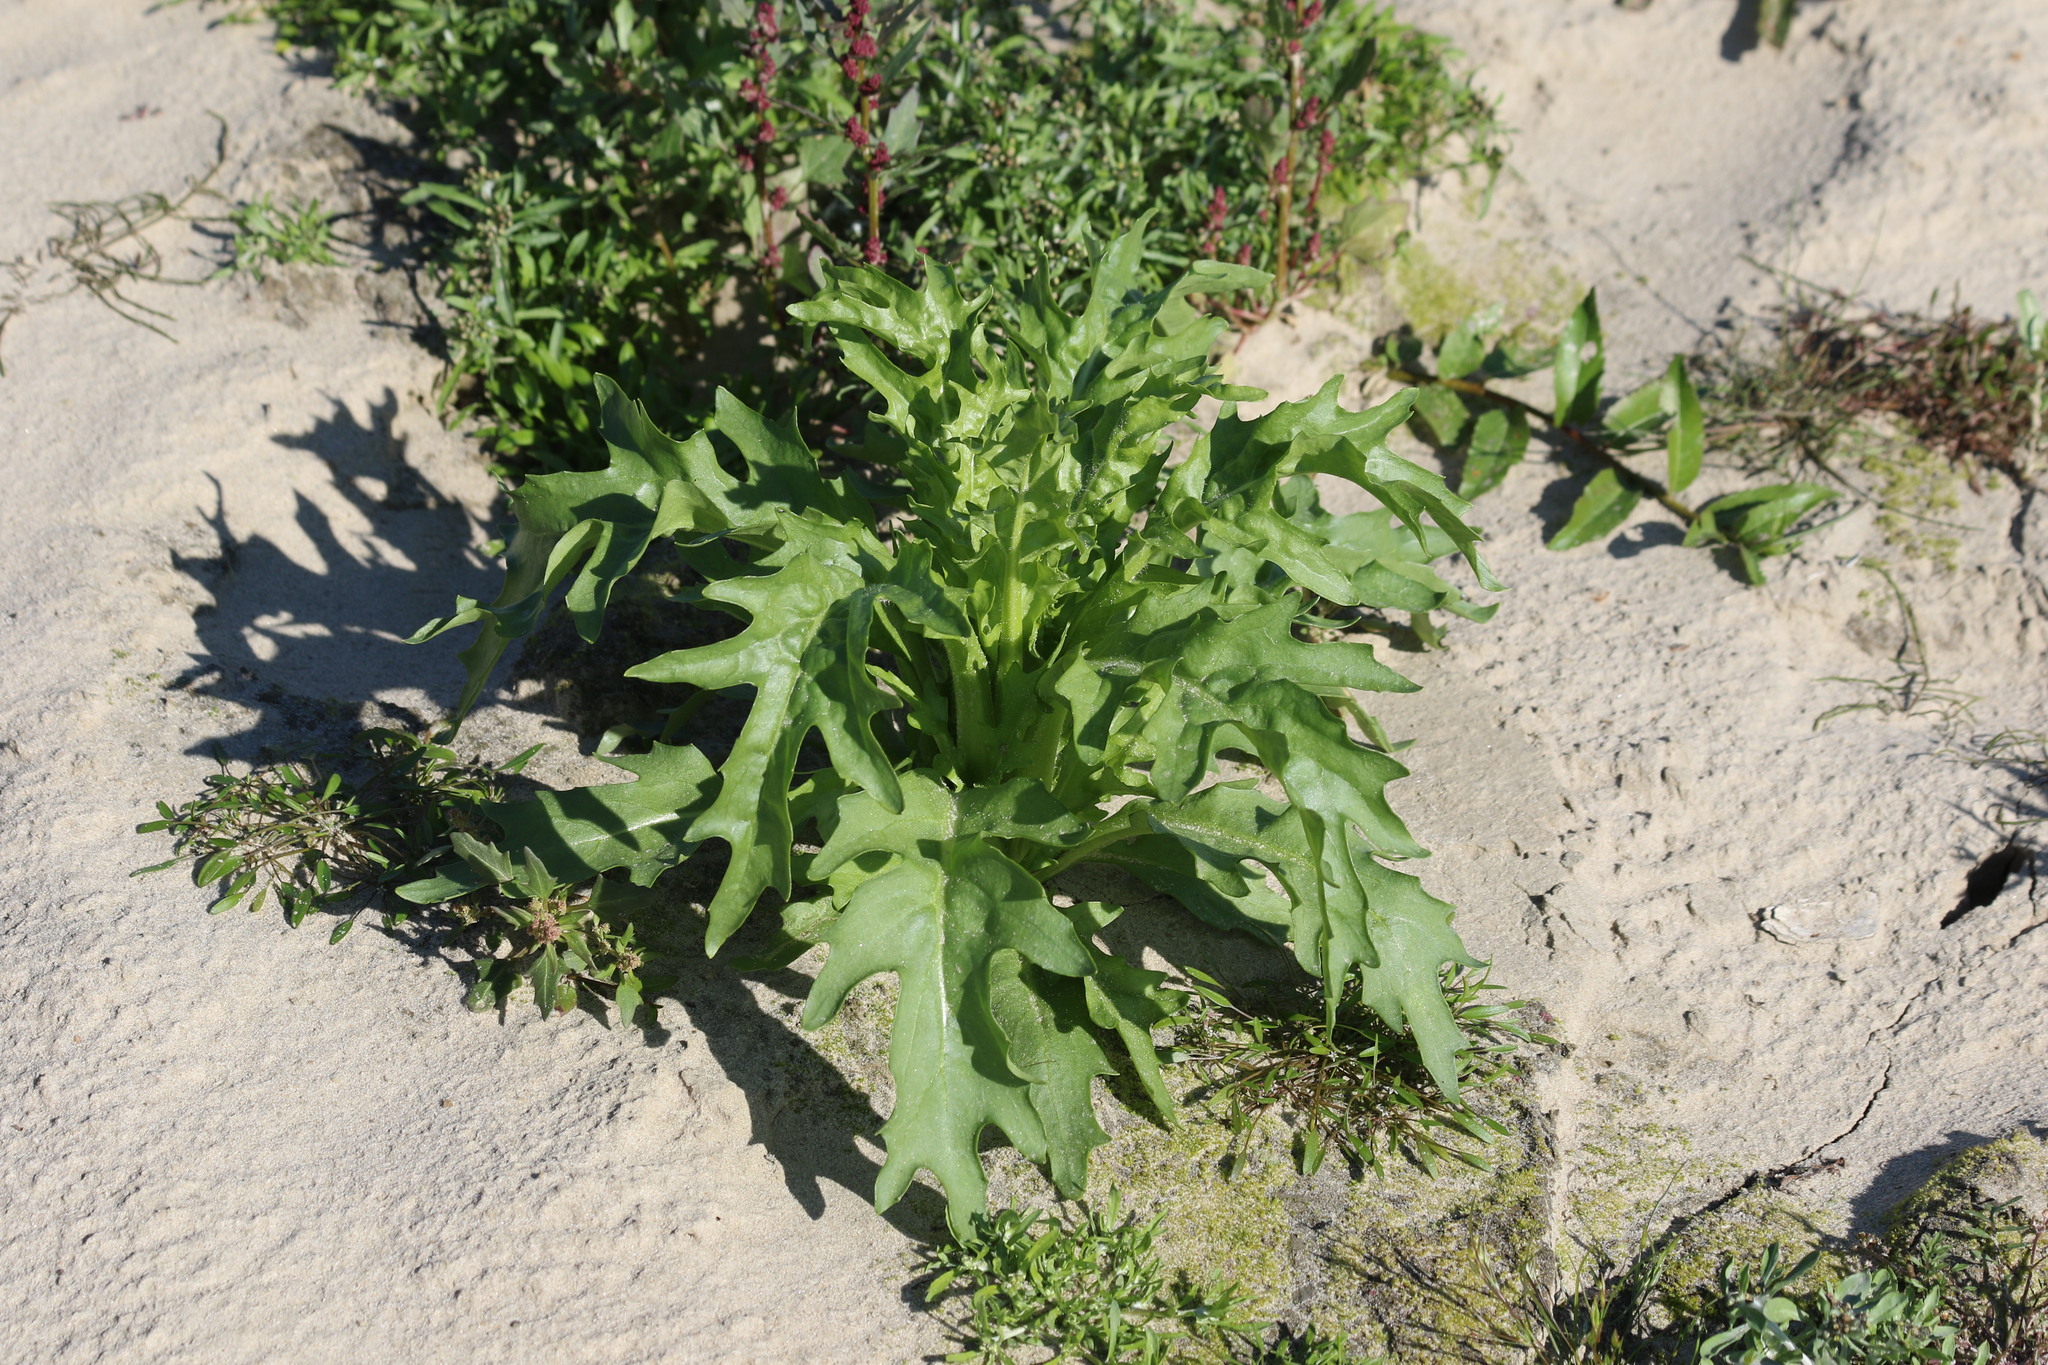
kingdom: Plantae
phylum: Tracheophyta
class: Magnoliopsida
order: Asterales
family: Asteraceae
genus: Tephroseris
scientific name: Tephroseris palustris
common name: Marsh fleawort
